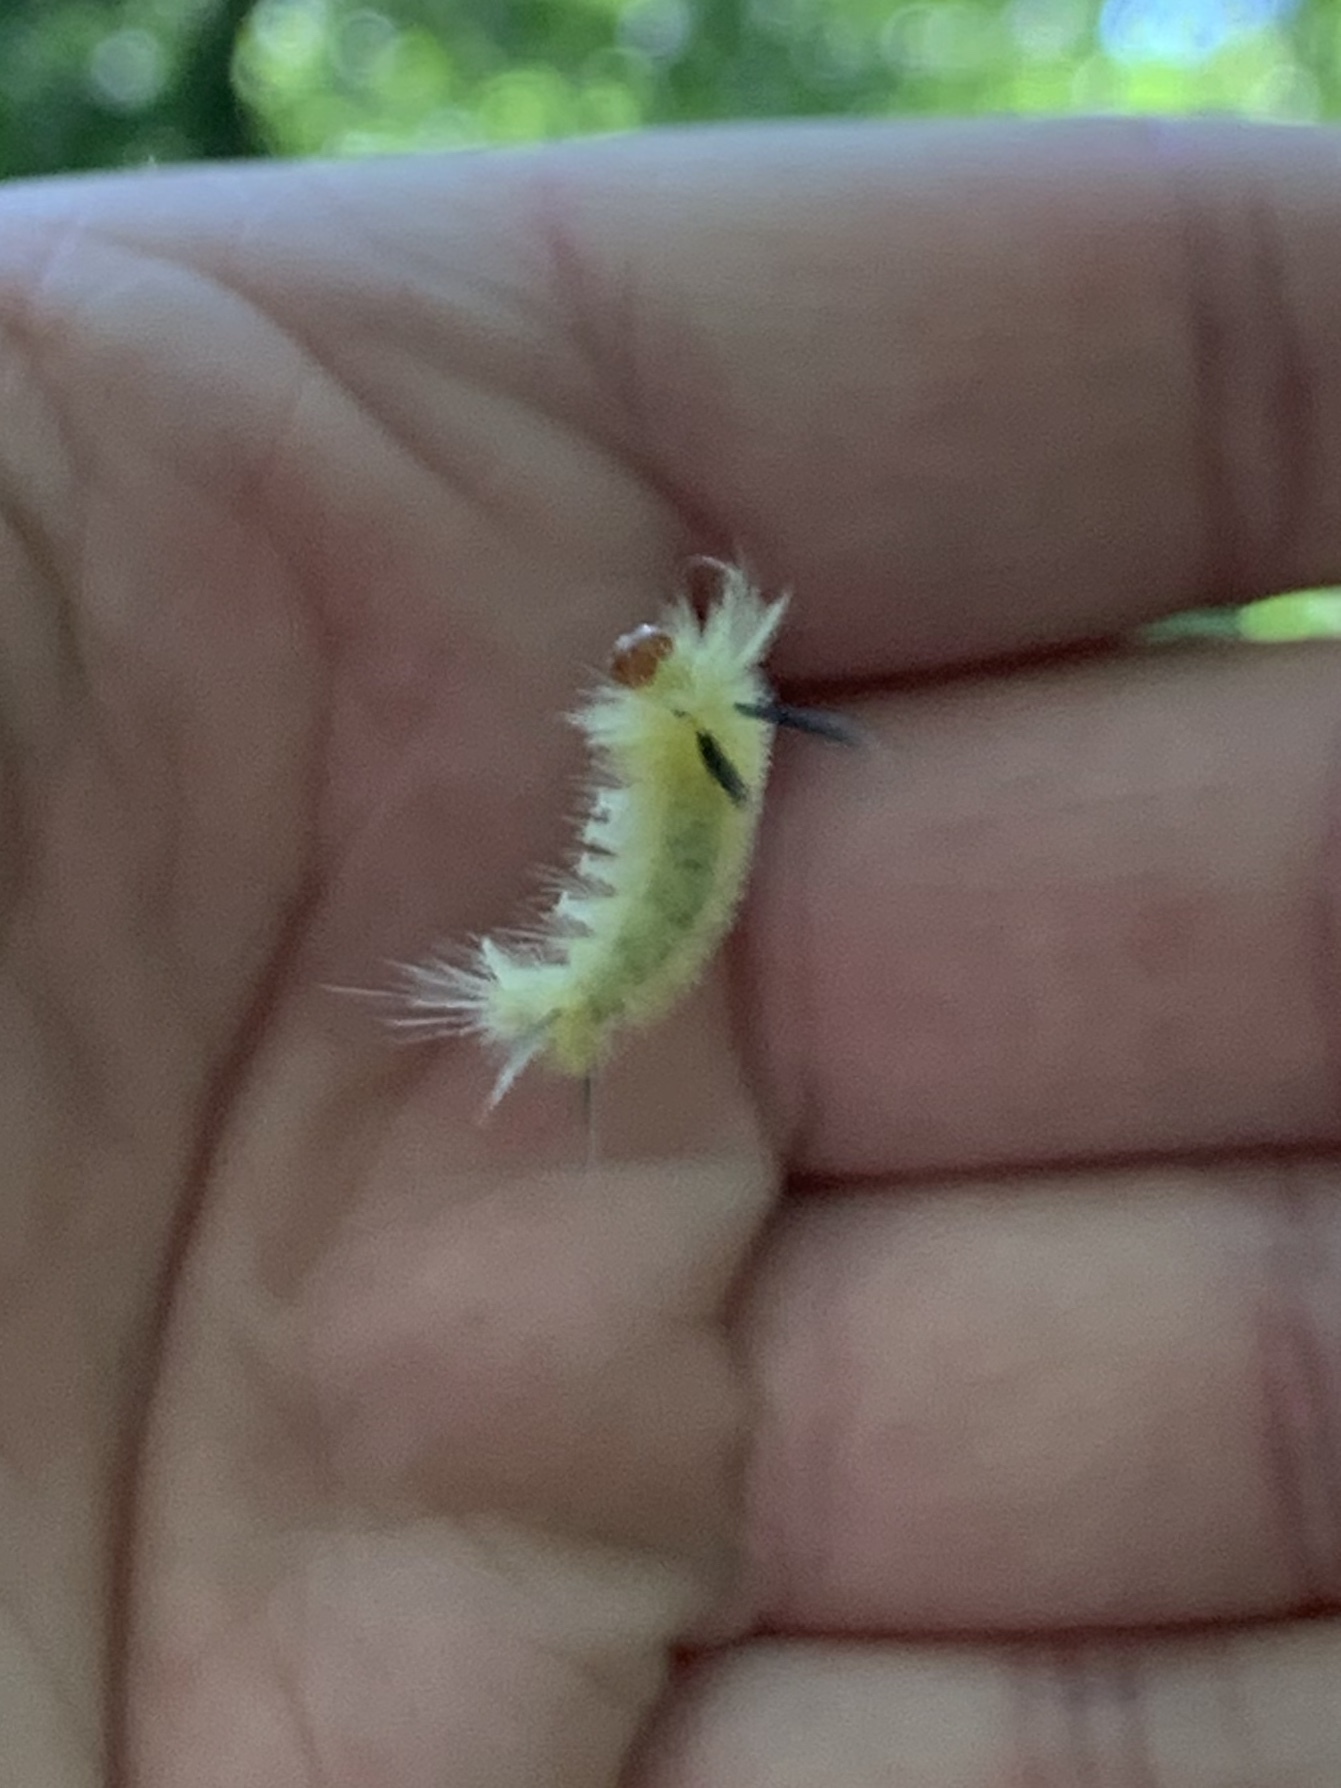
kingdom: Animalia
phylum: Arthropoda
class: Insecta
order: Lepidoptera
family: Erebidae
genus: Halysidota
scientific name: Halysidota tessellaris
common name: Banded tussock moth
